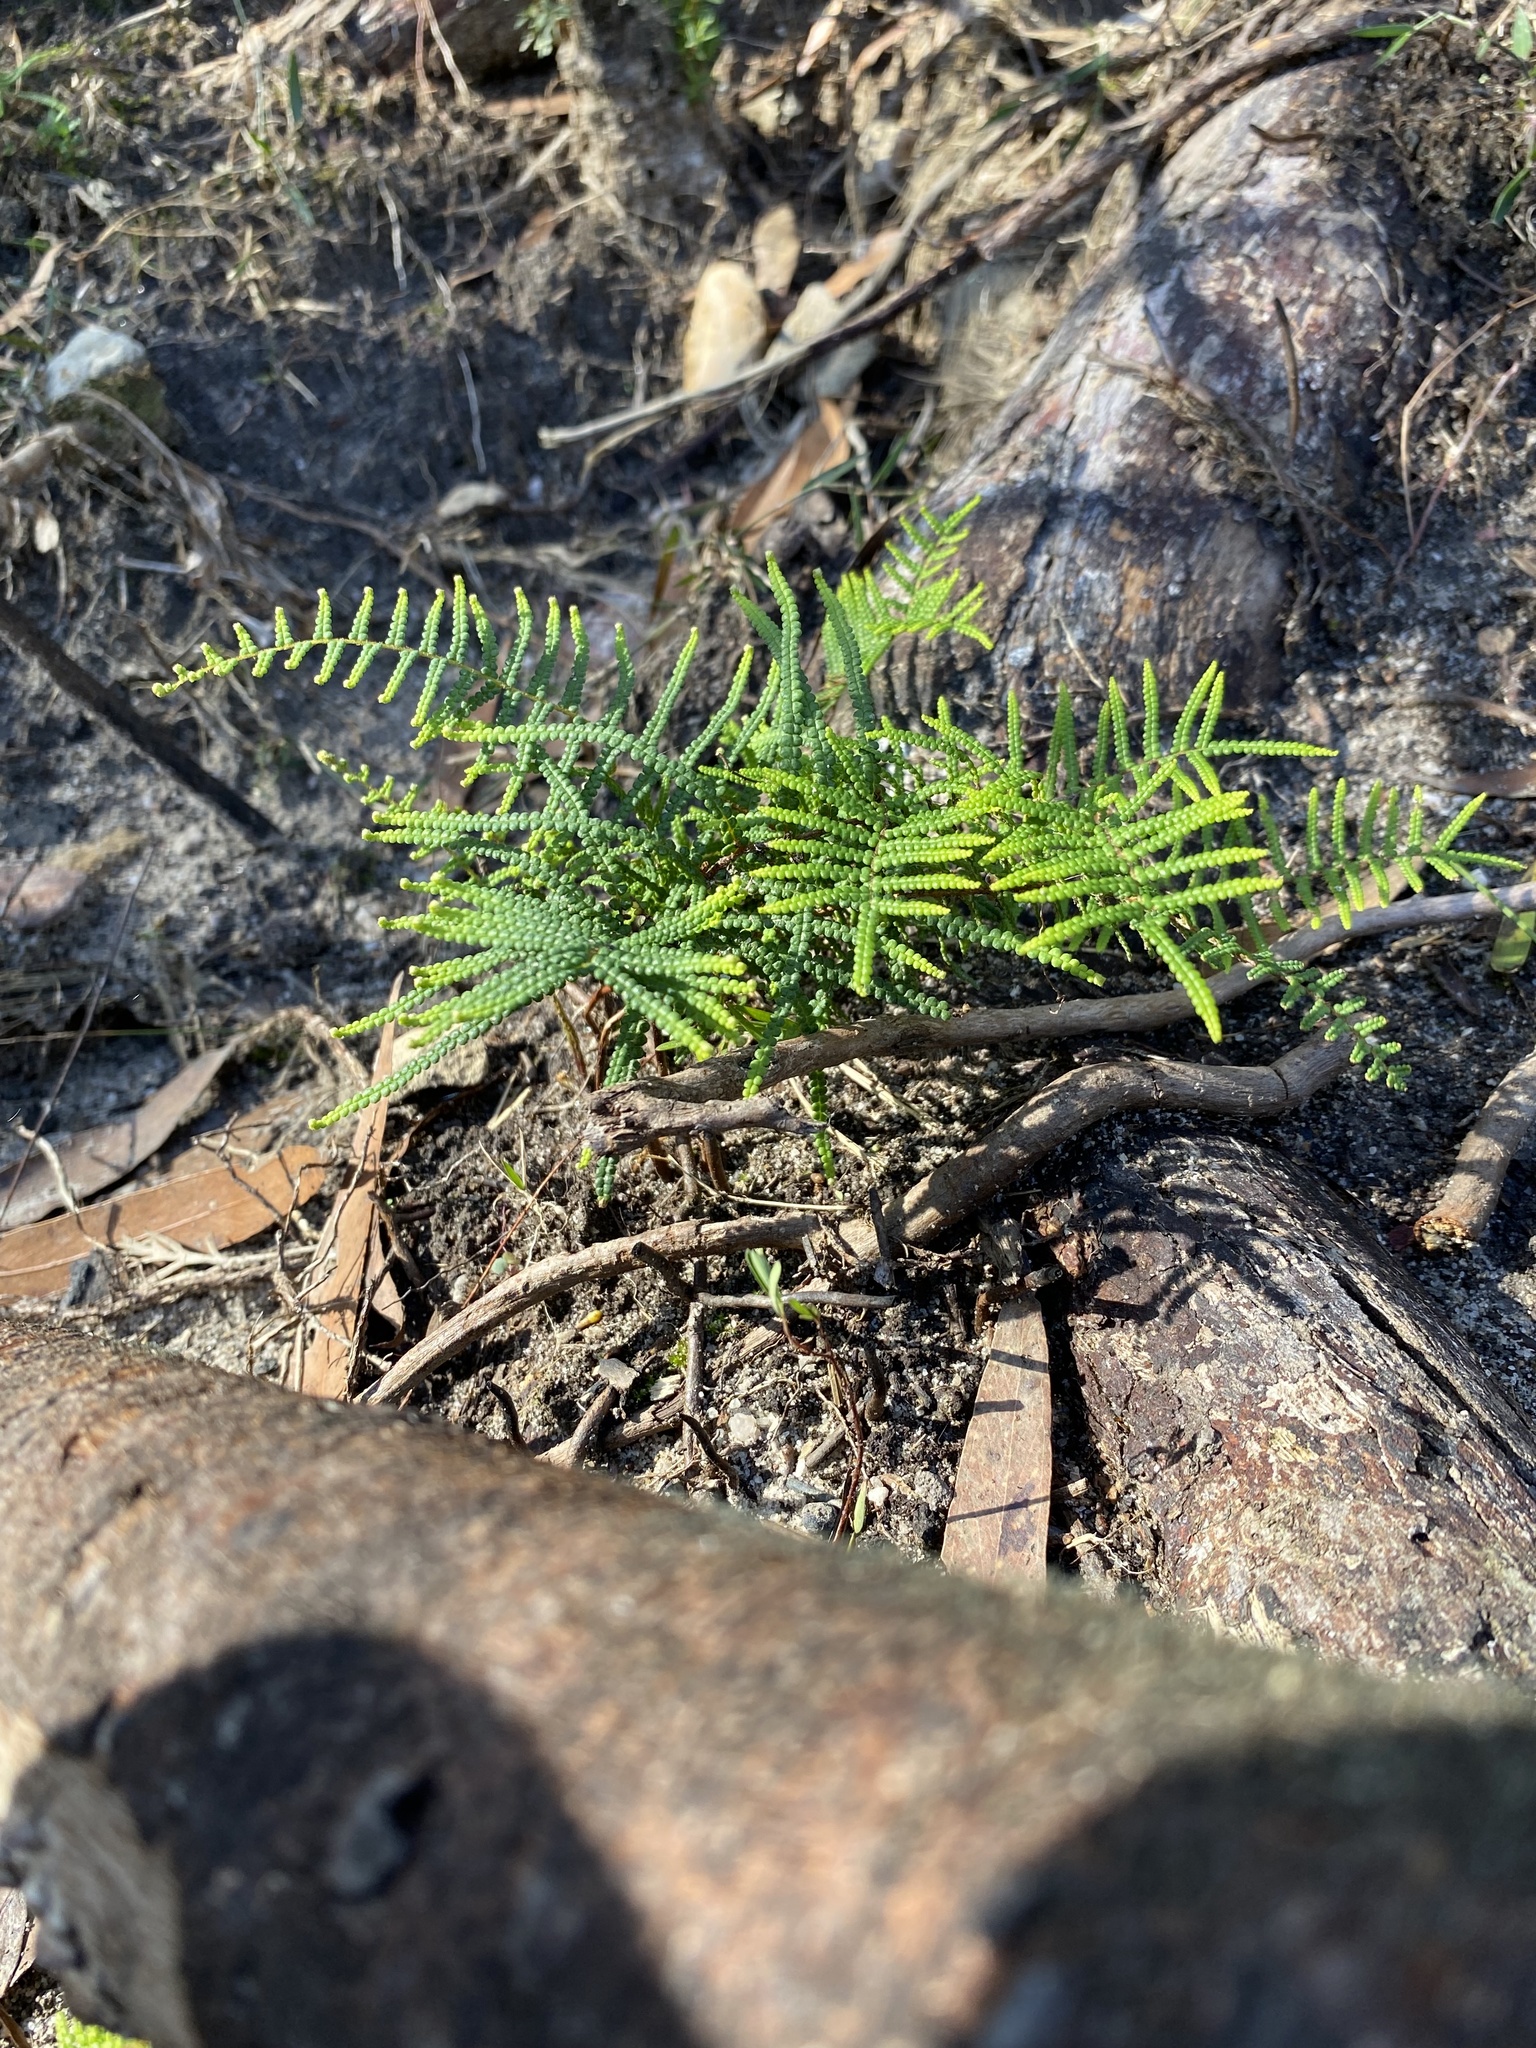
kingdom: Plantae
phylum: Tracheophyta
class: Polypodiopsida
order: Gleicheniales
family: Gleicheniaceae
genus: Gleichenia
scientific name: Gleichenia dicarpa
